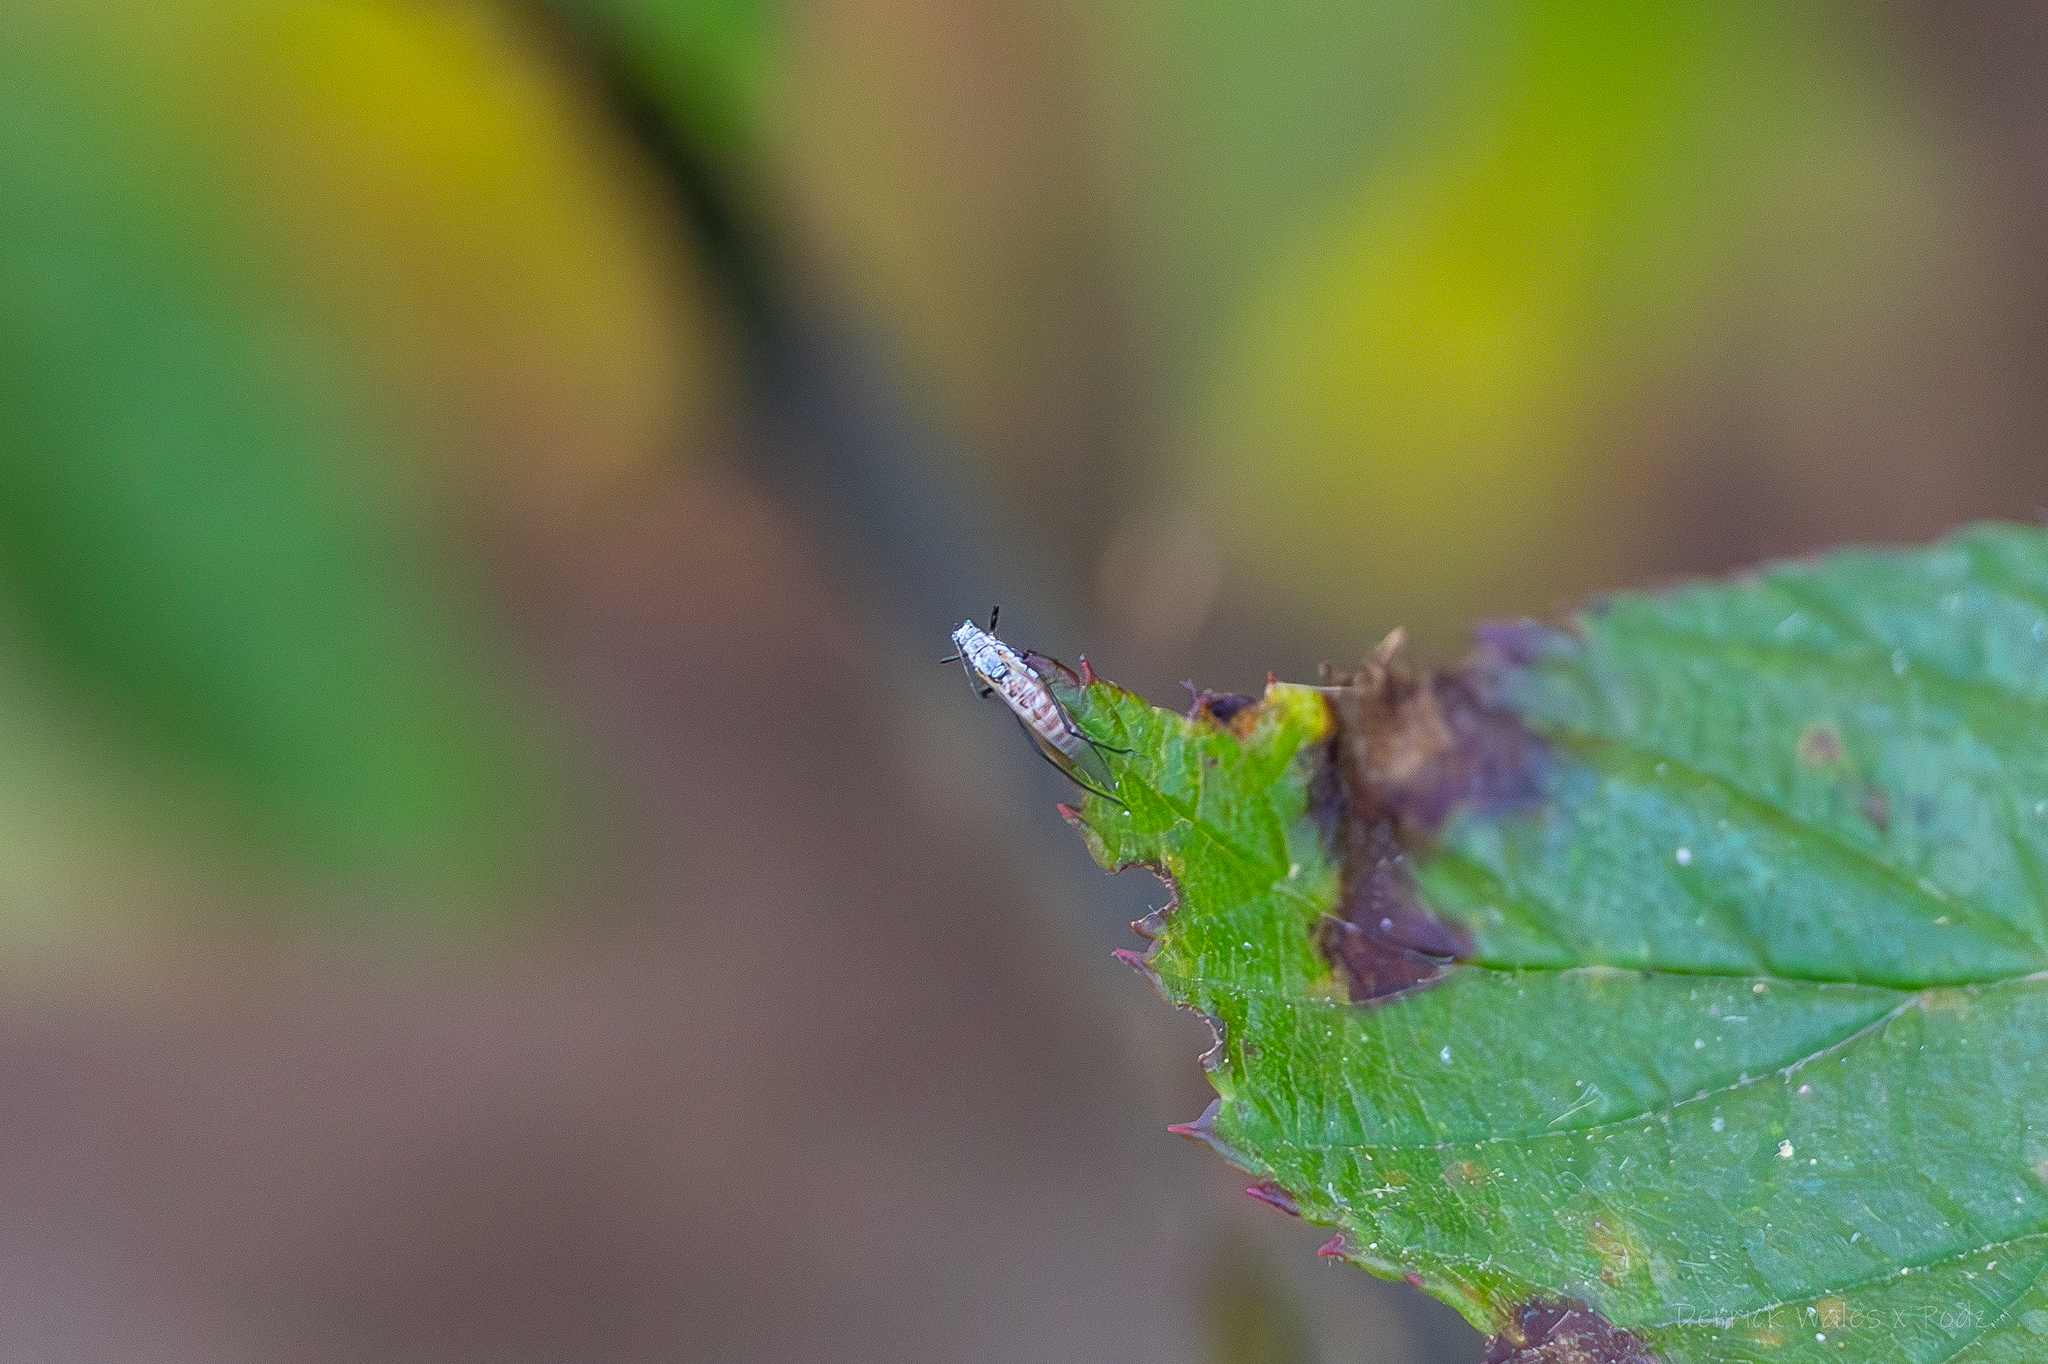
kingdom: Animalia
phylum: Arthropoda
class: Insecta
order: Hemiptera
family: Aphididae
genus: Eulachnus
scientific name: Eulachnus rileyi
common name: Active gray pine needle aphid
